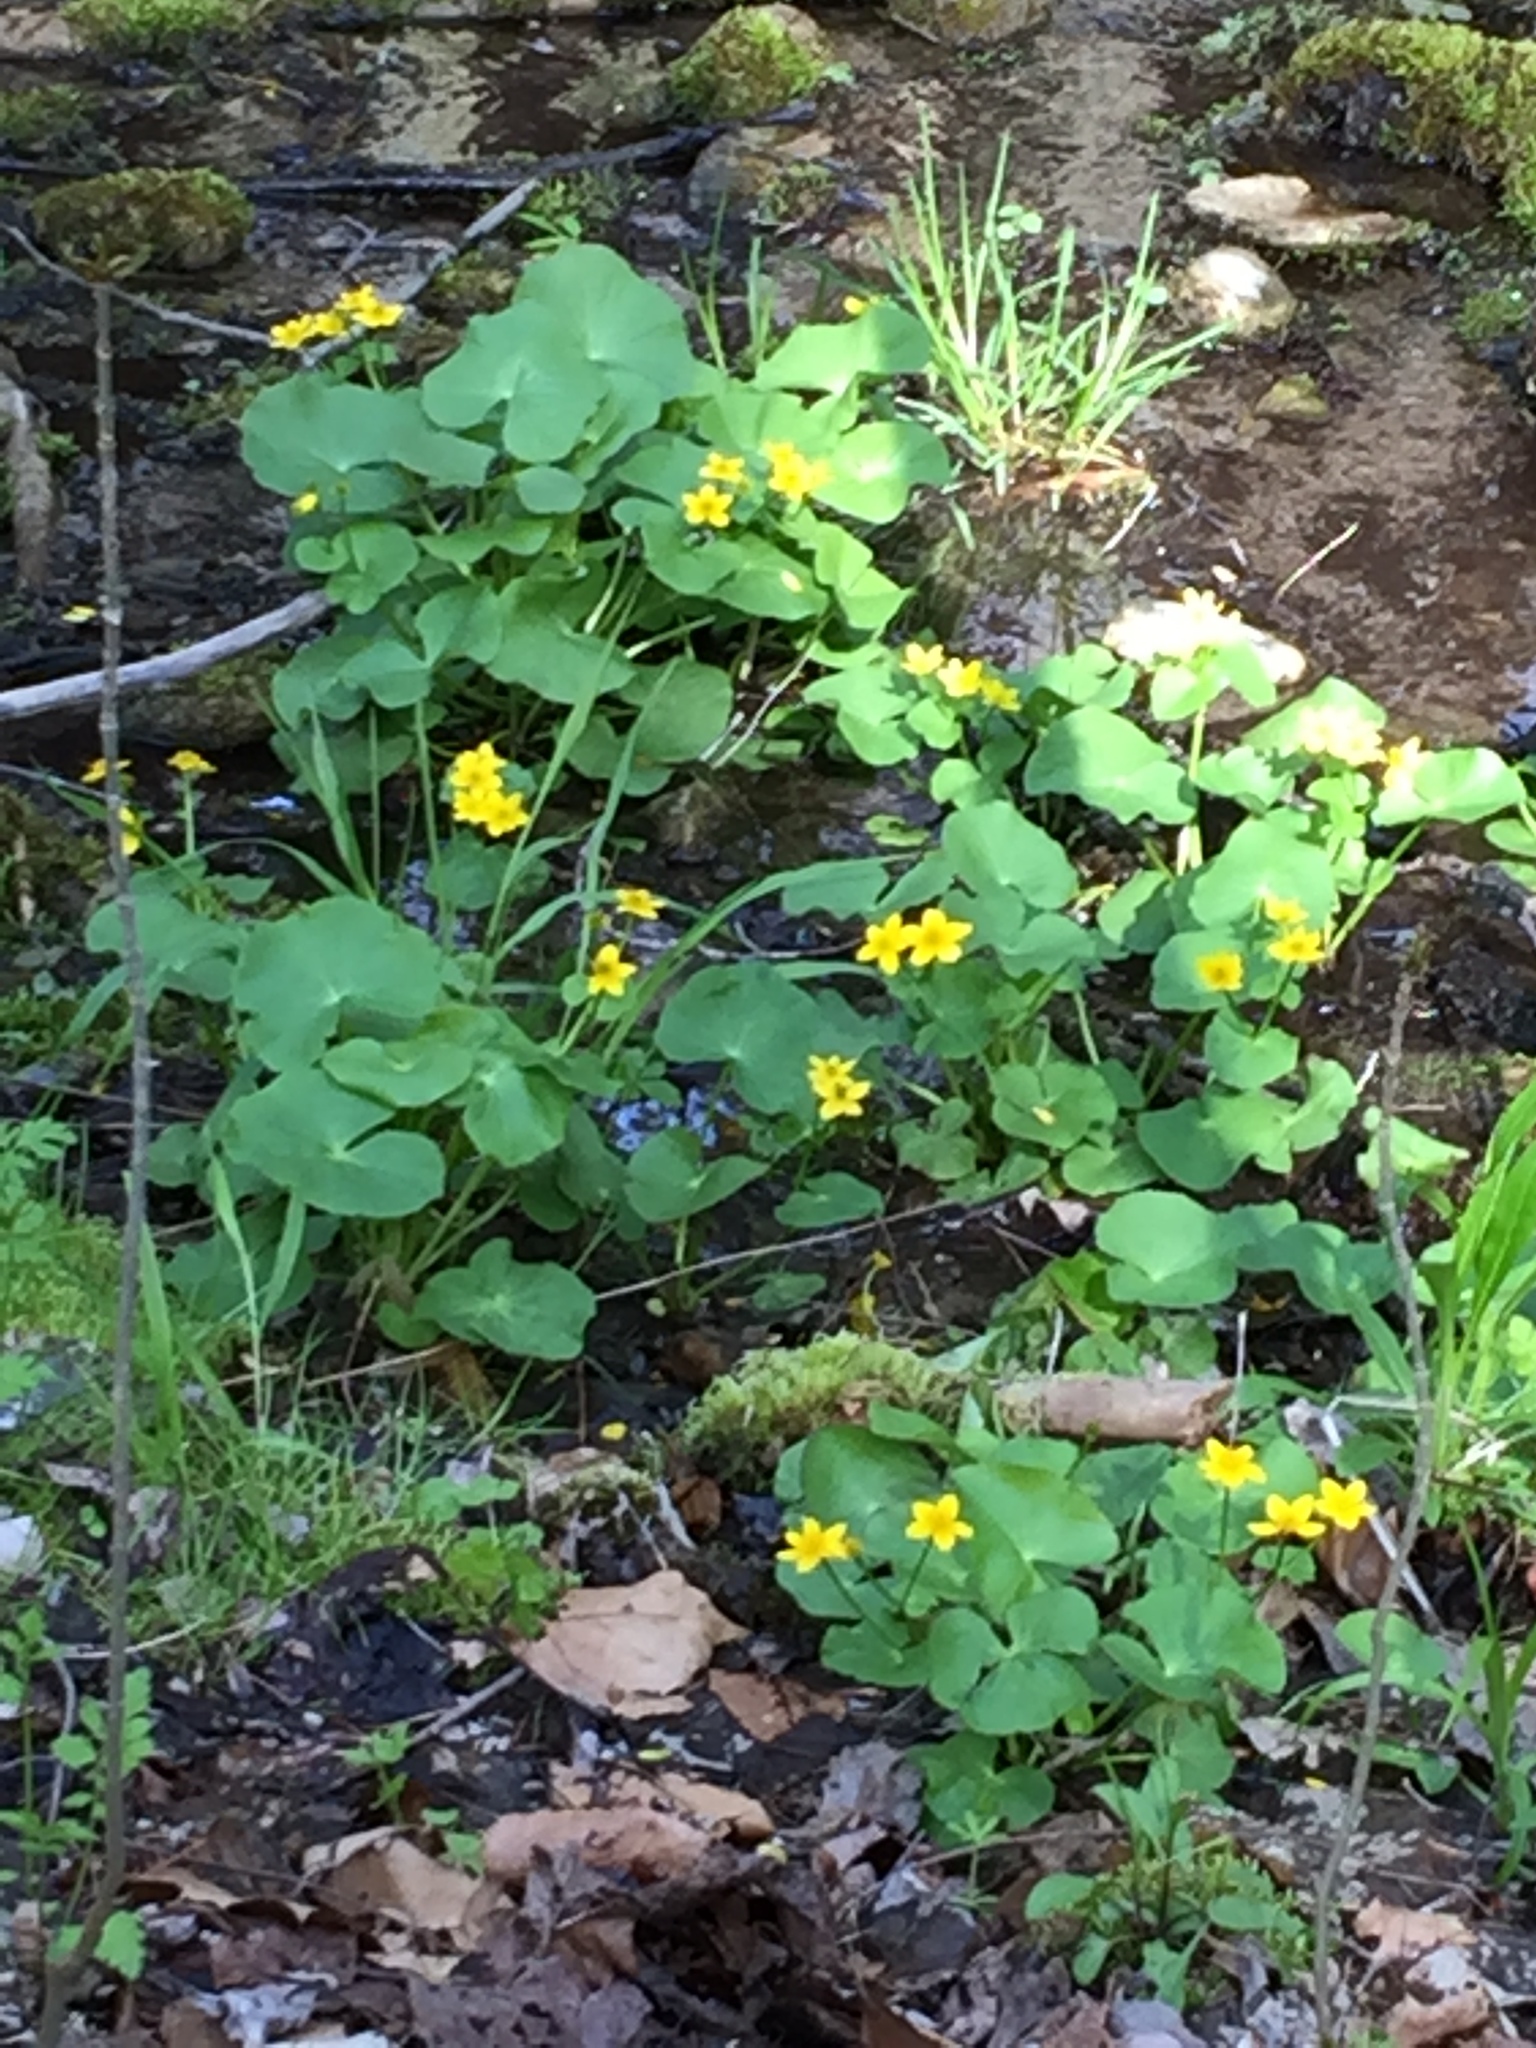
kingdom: Plantae
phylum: Tracheophyta
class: Magnoliopsida
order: Ranunculales
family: Ranunculaceae
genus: Caltha
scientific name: Caltha palustris
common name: Marsh marigold
